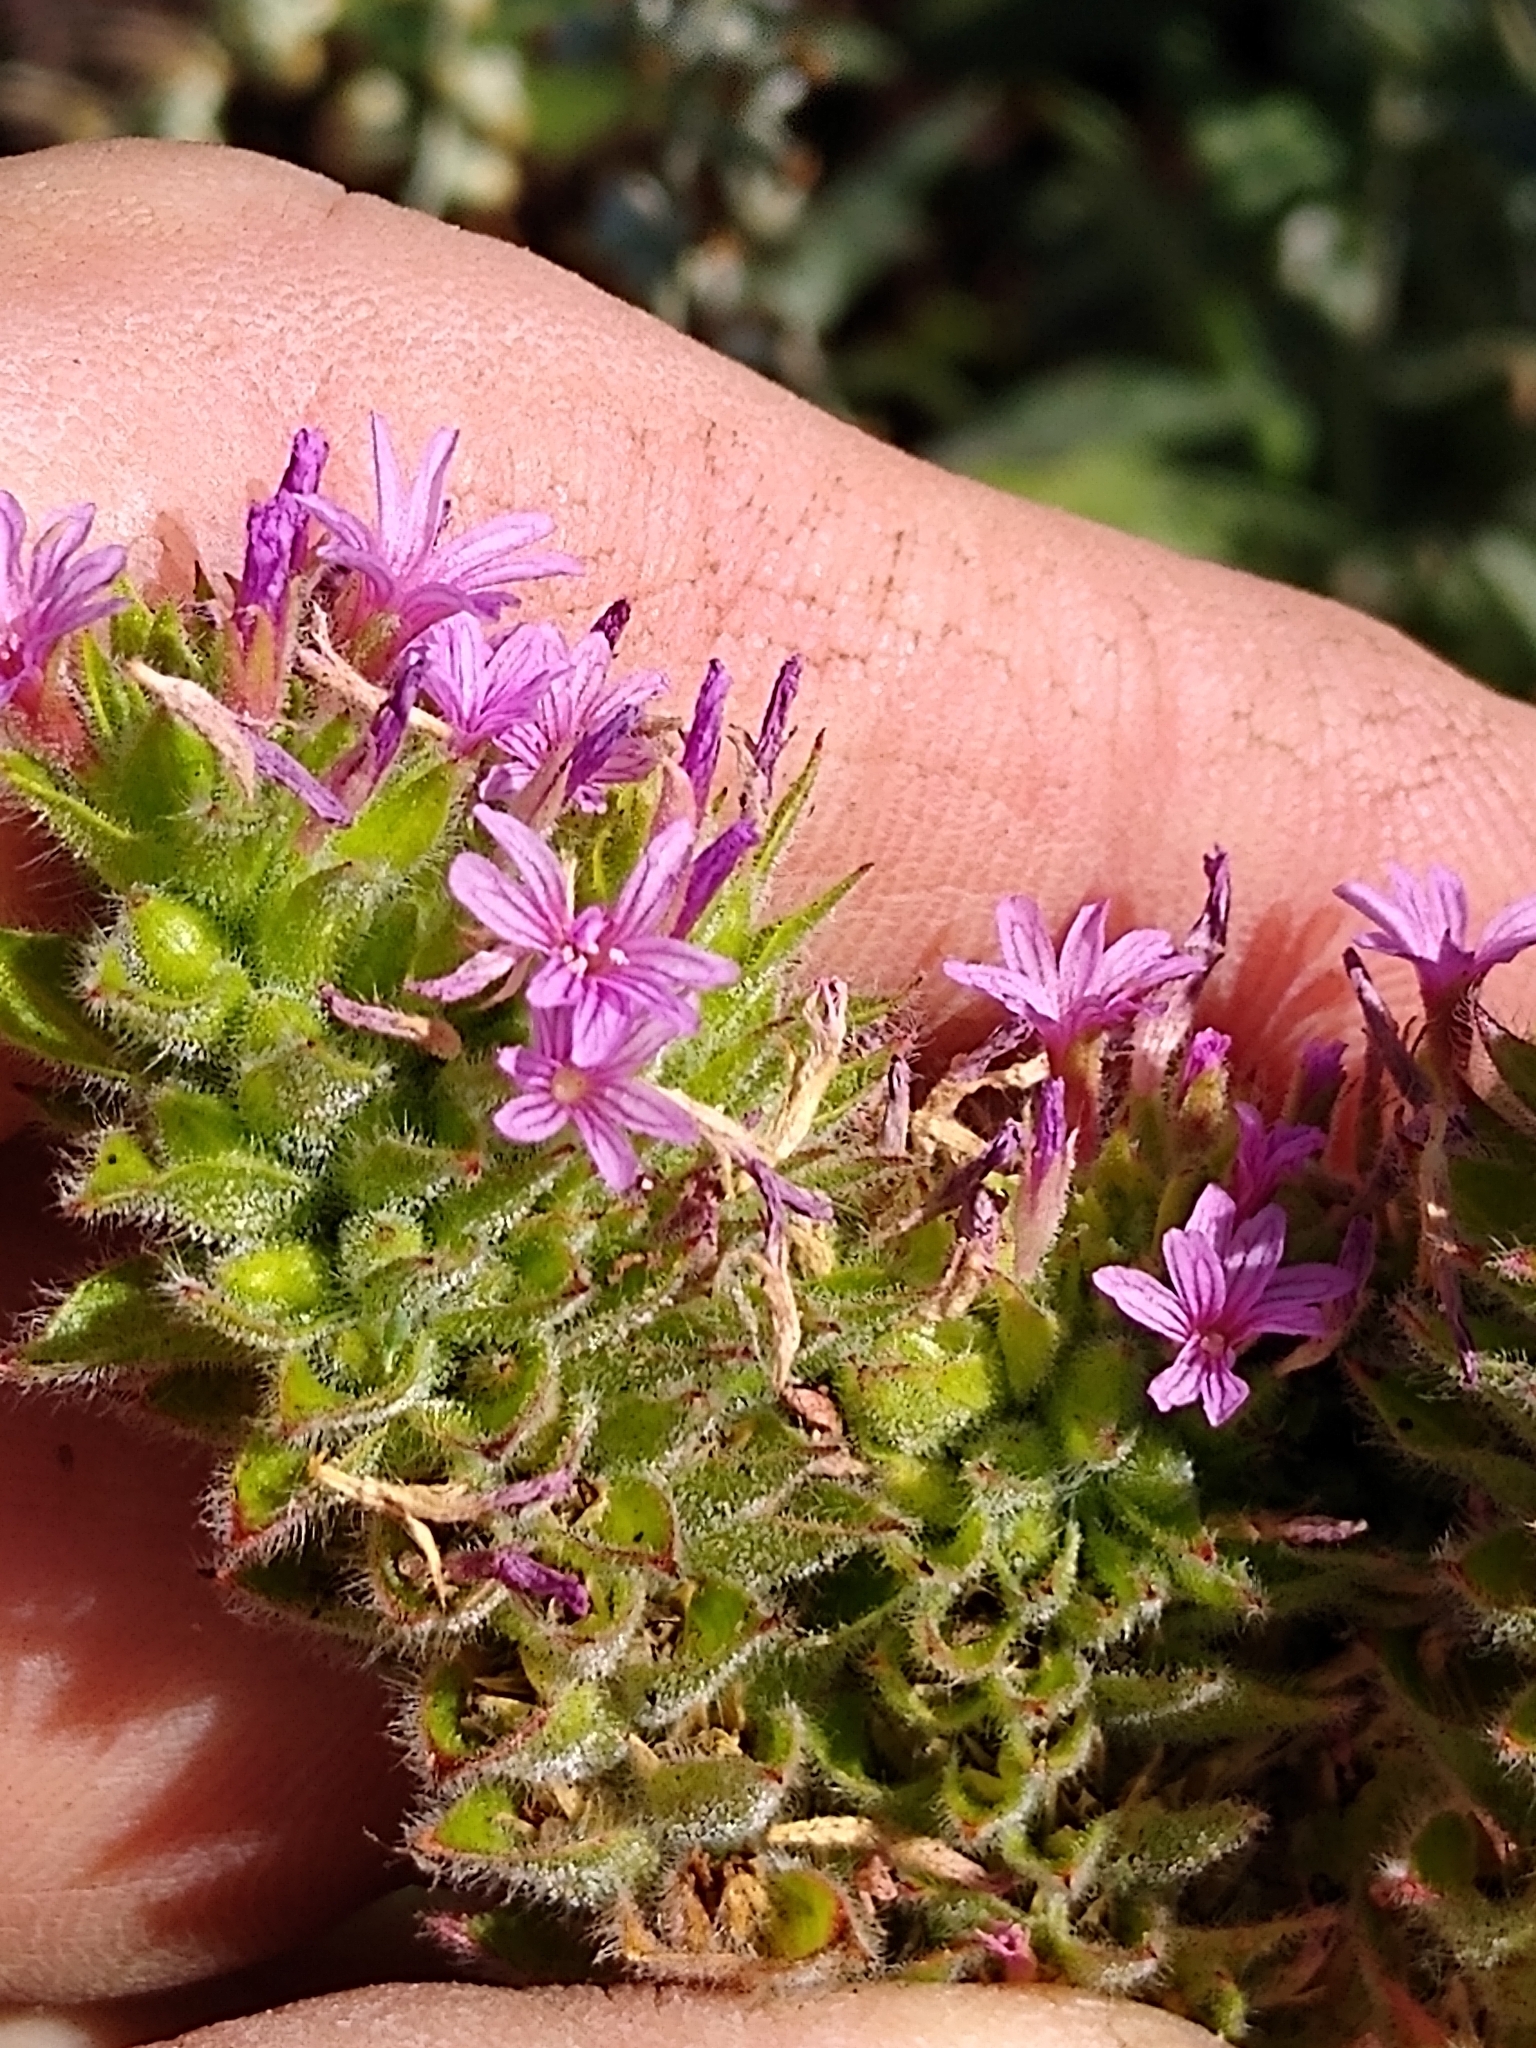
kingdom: Plantae
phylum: Tracheophyta
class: Magnoliopsida
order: Myrtales
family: Onagraceae
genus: Epilobium
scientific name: Epilobium densiflorum
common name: Dense spike-primrose
